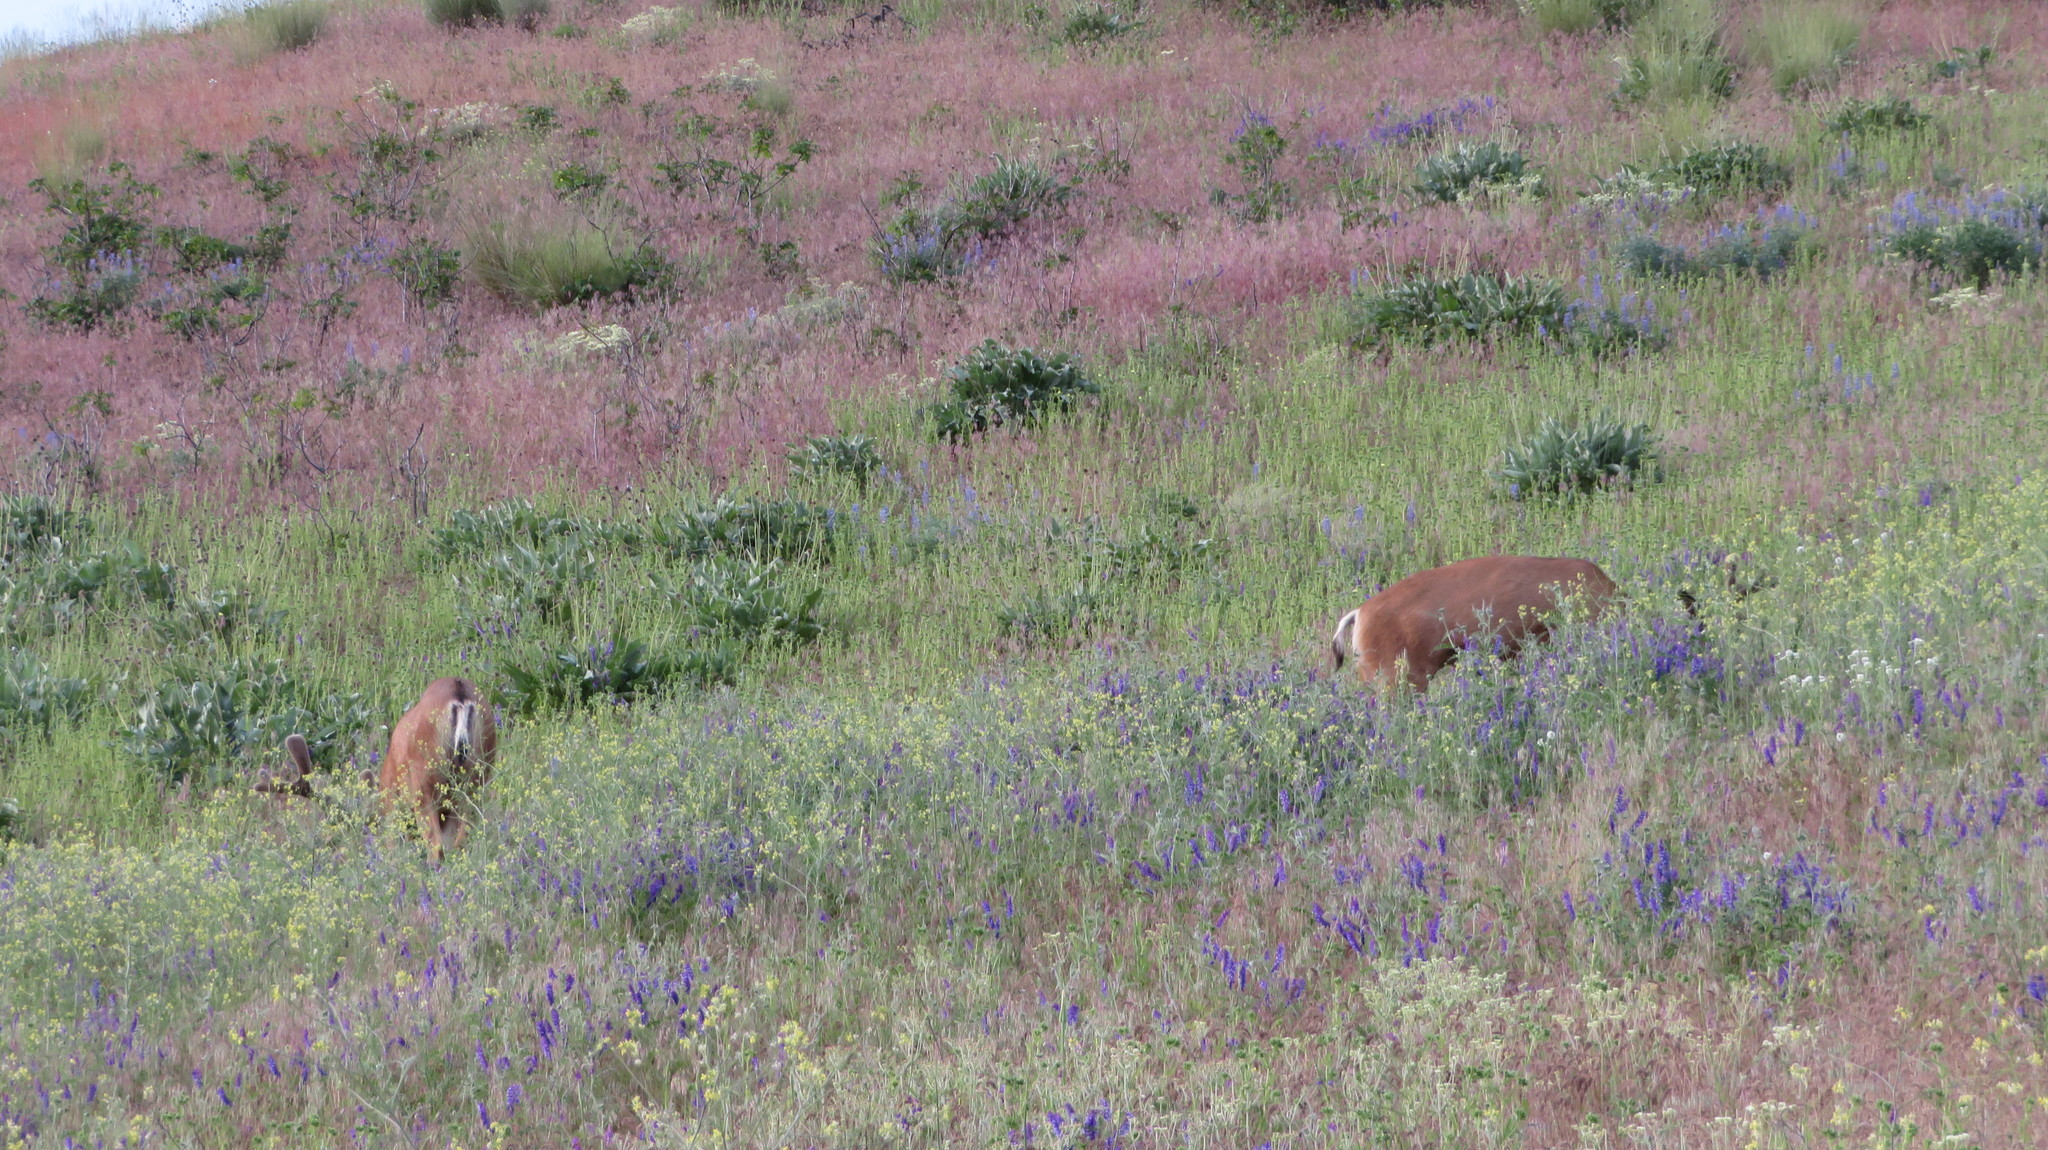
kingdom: Animalia
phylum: Chordata
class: Mammalia
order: Artiodactyla
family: Cervidae
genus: Odocoileus
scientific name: Odocoileus hemionus
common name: Mule deer
